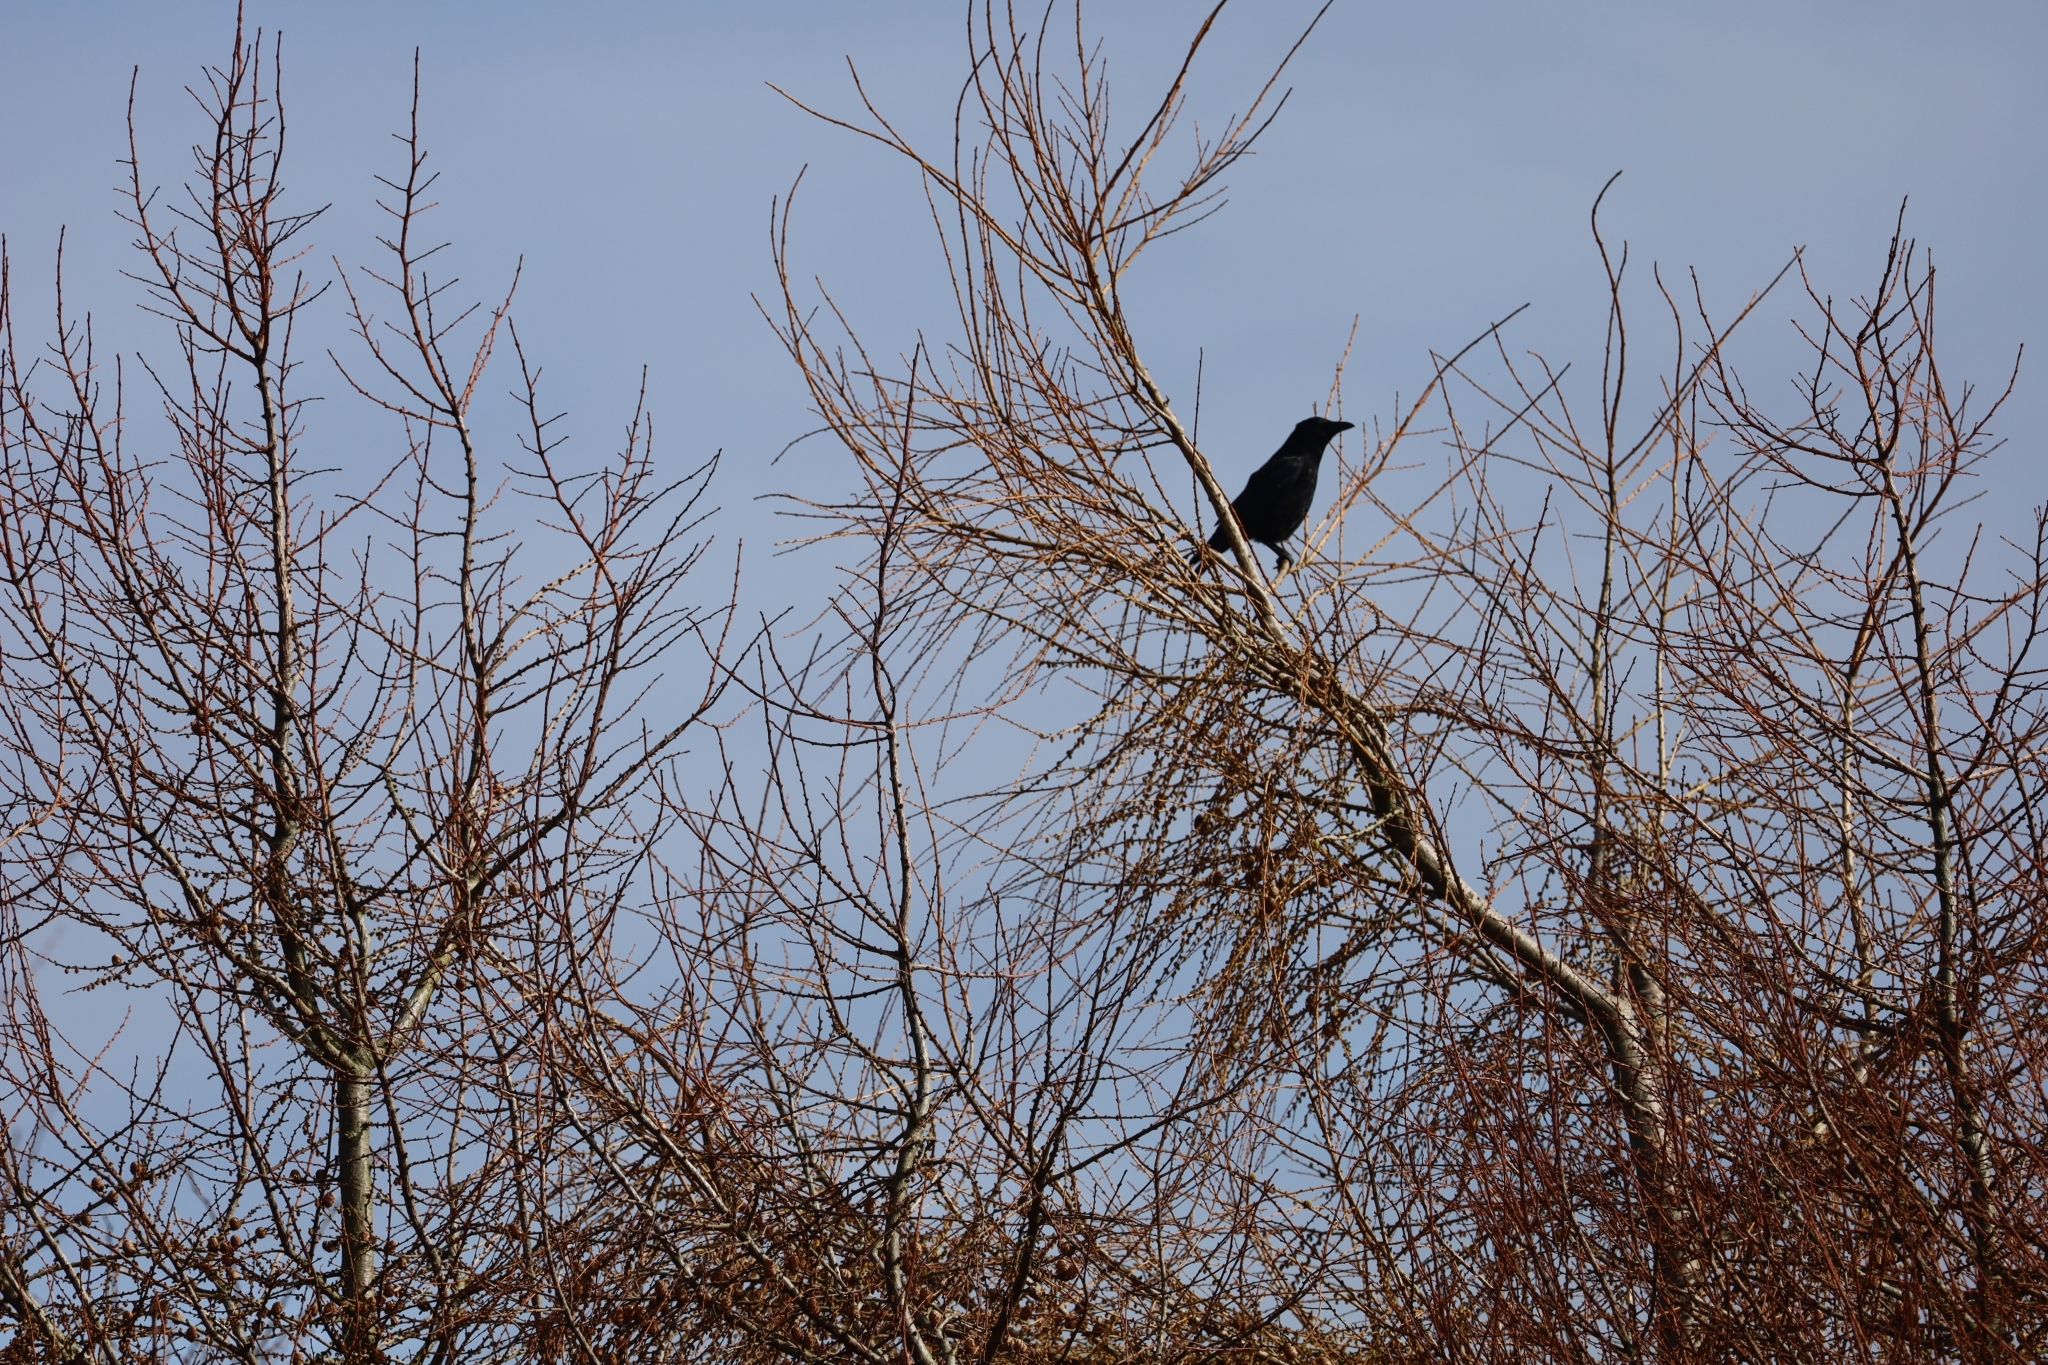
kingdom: Animalia
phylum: Chordata
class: Aves
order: Passeriformes
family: Corvidae
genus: Corvus
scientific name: Corvus corone
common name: Carrion crow
